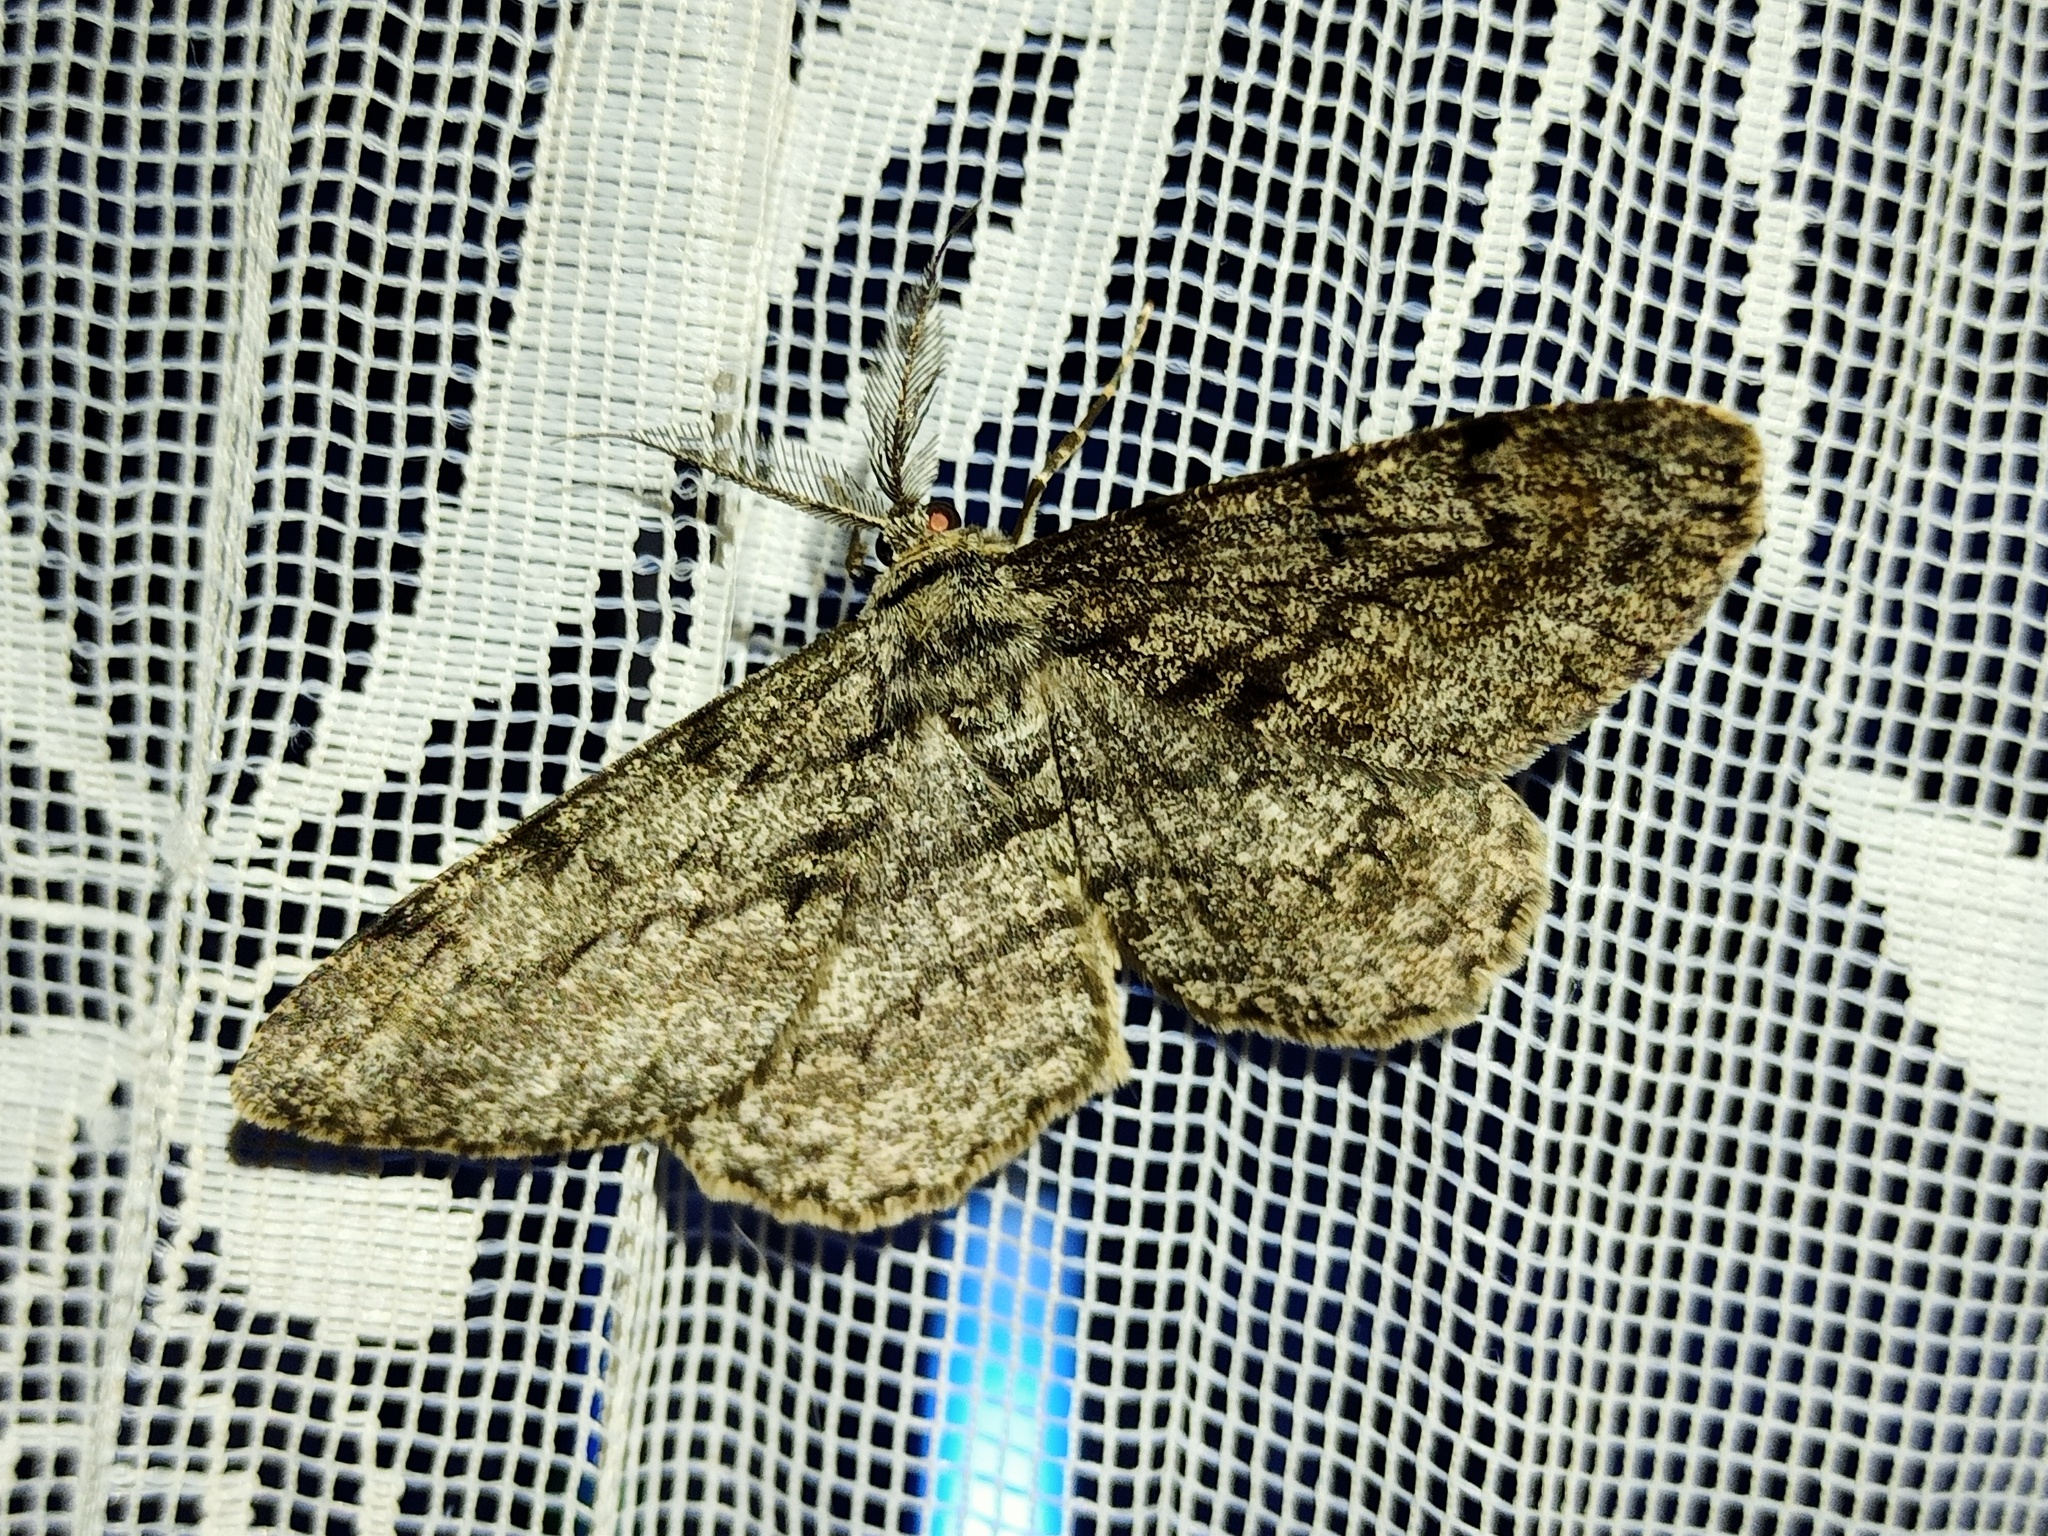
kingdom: Animalia
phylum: Arthropoda
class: Insecta
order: Lepidoptera
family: Geometridae
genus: Hypomecis
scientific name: Hypomecis roboraria
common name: Great oak beauty
